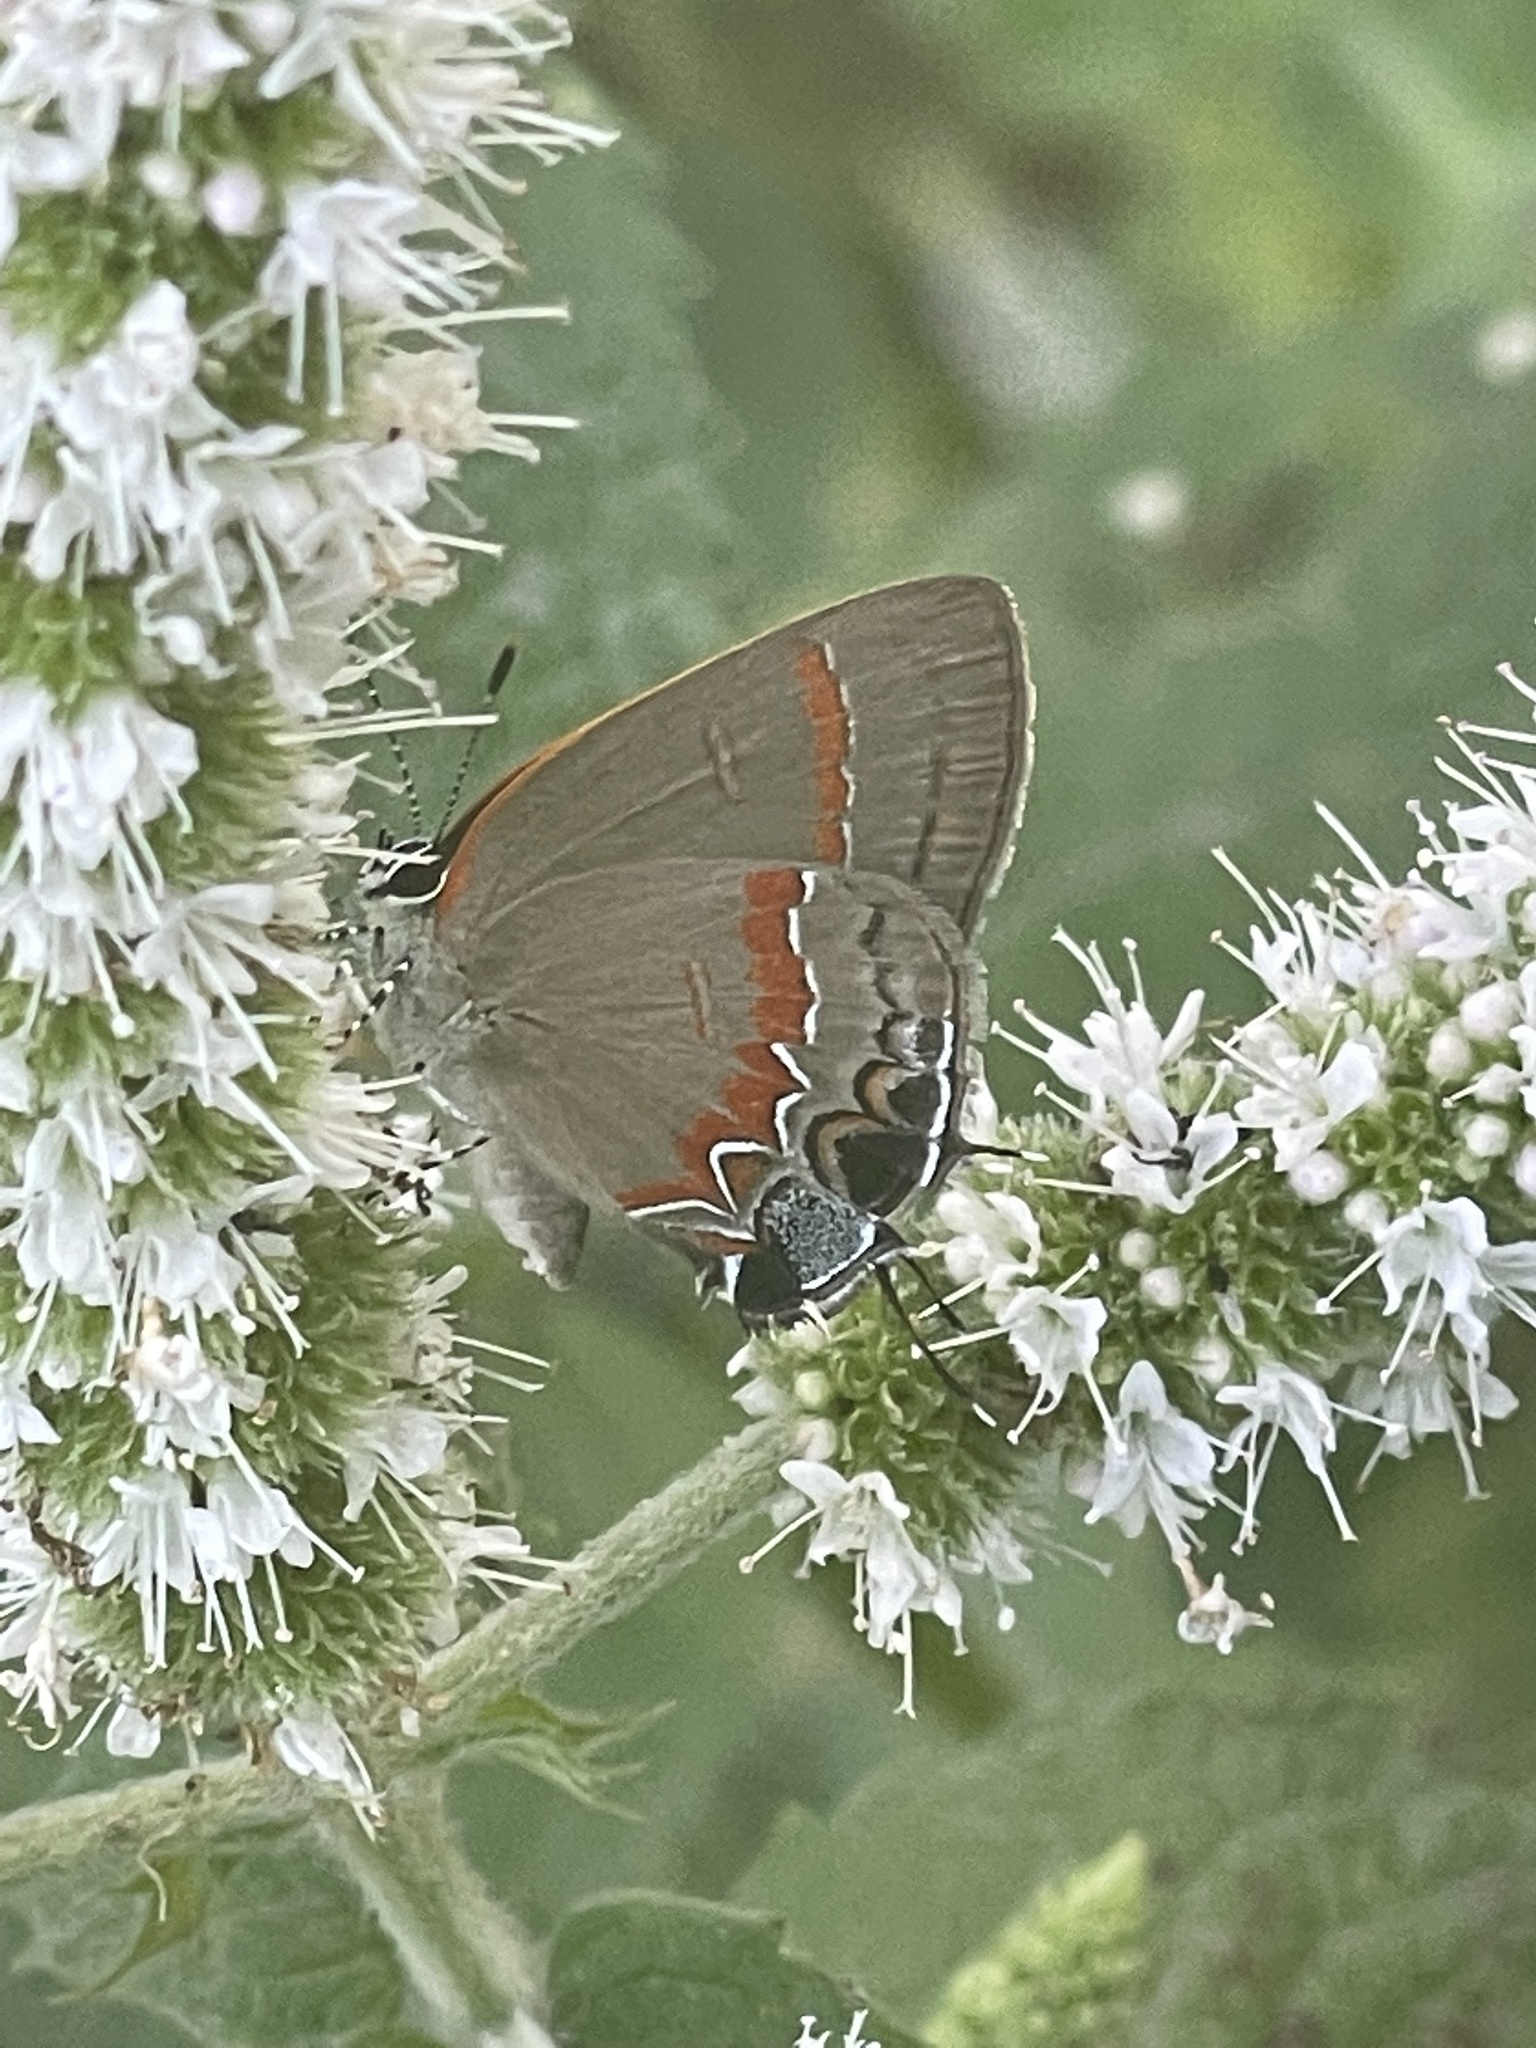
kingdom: Animalia
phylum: Arthropoda
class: Insecta
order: Lepidoptera
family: Lycaenidae
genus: Calycopis
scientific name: Calycopis cecrops
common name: Red-banded hairstreak
